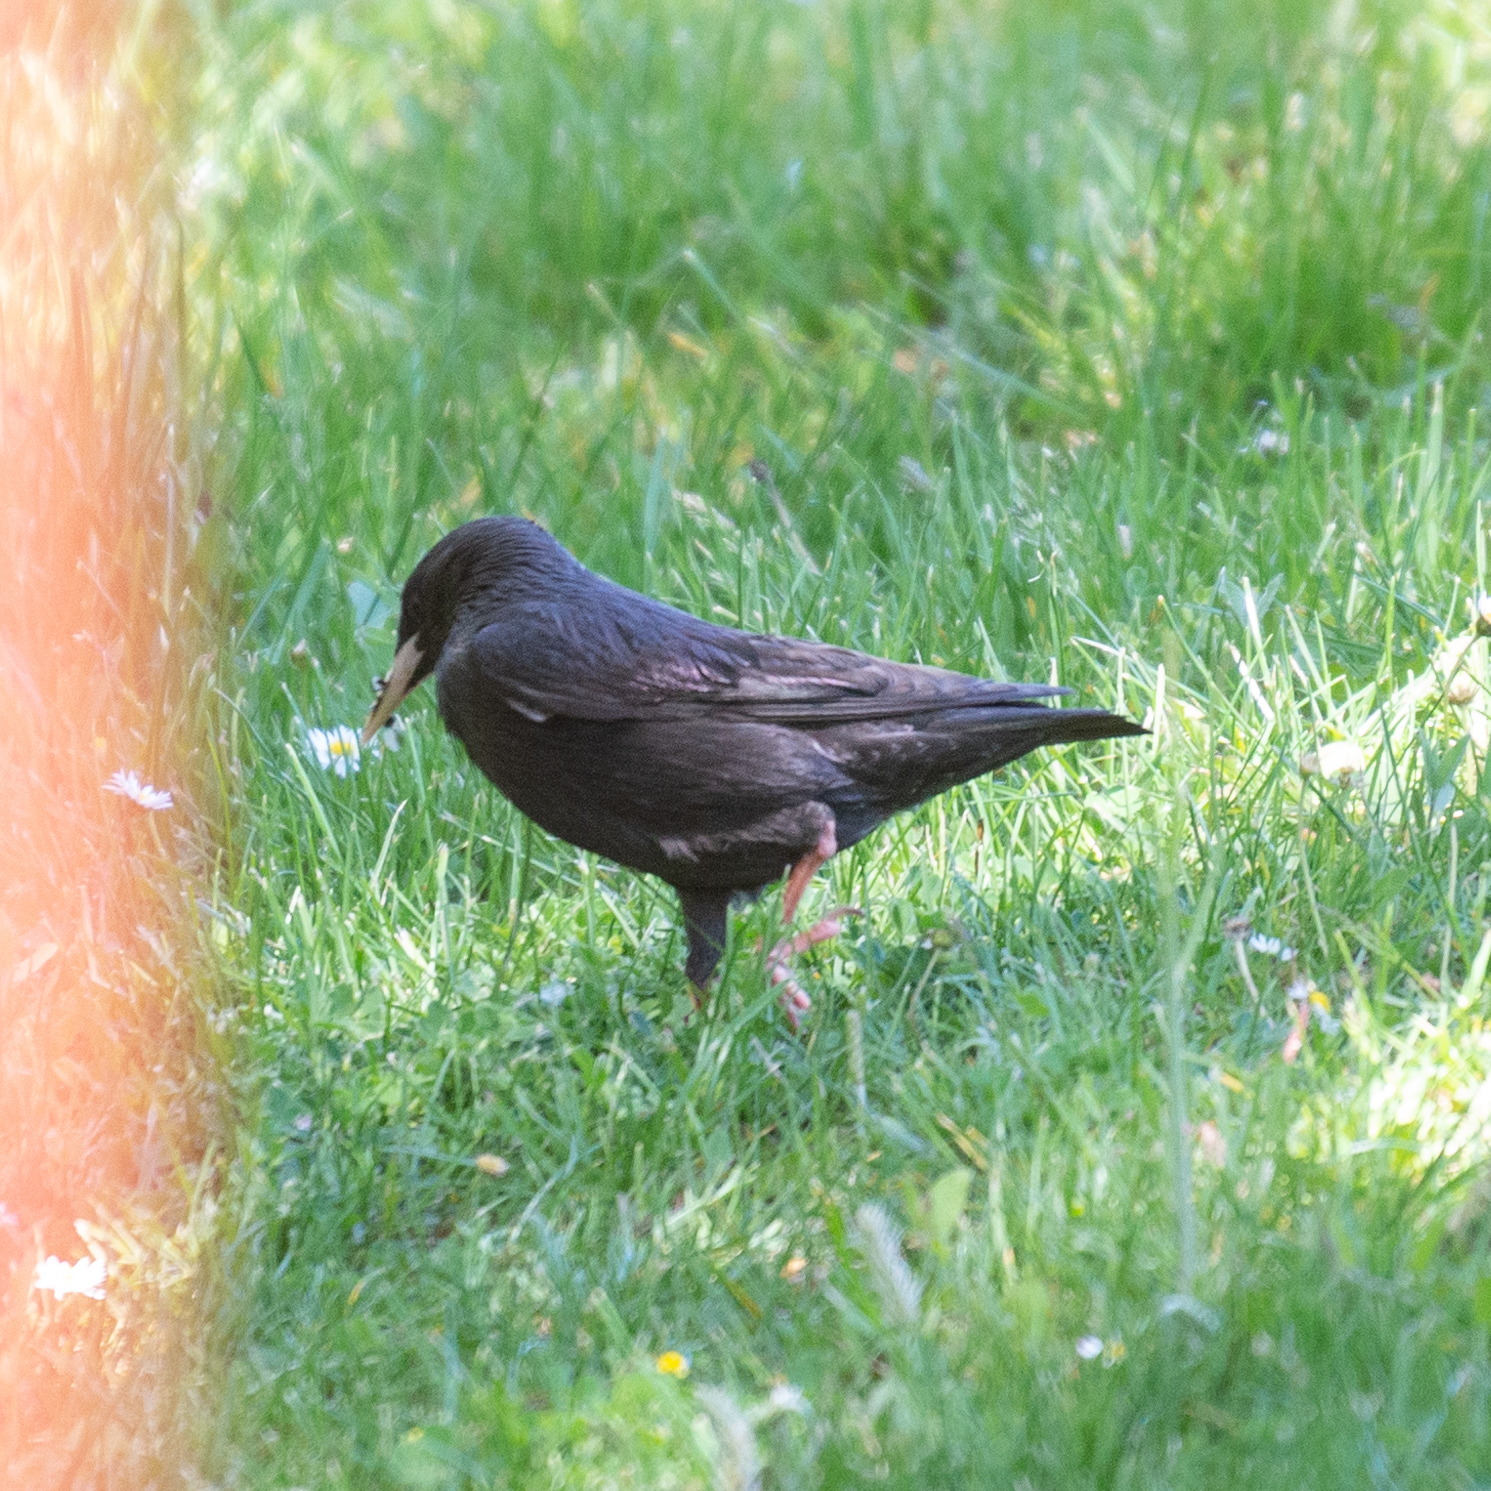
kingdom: Animalia
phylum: Chordata
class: Aves
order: Passeriformes
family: Sturnidae
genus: Sturnus
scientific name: Sturnus unicolor
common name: Spotless starling
